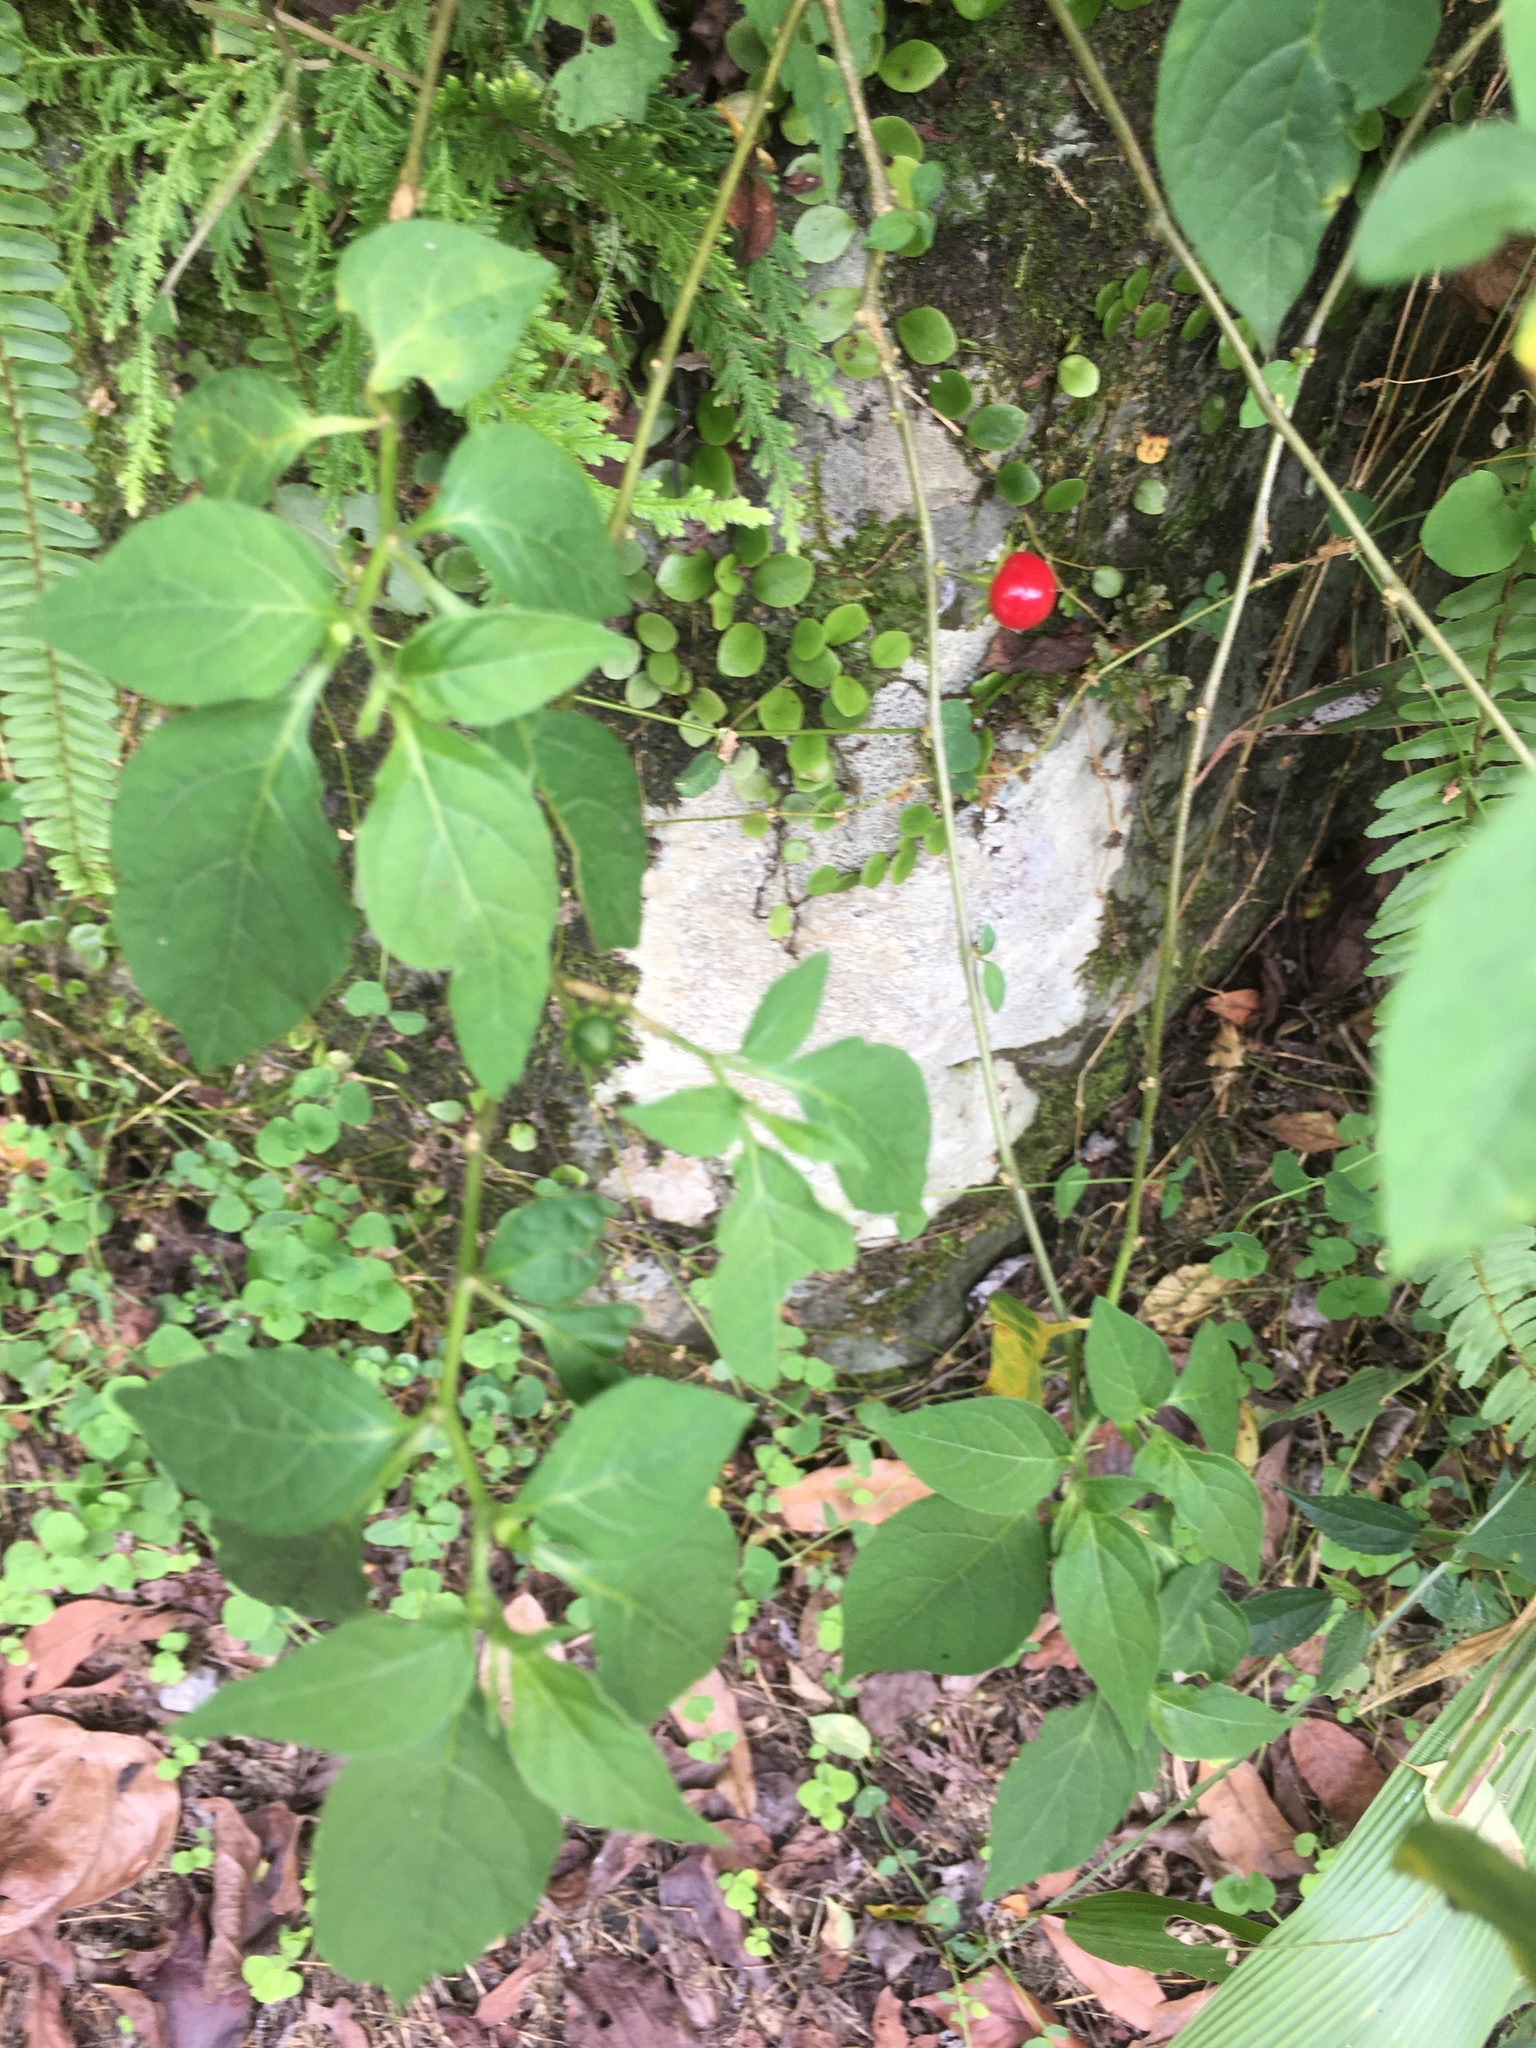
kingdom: Plantae
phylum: Tracheophyta
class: Magnoliopsida
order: Solanales
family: Solanaceae
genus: Lycianthes
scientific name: Lycianthes biflora
